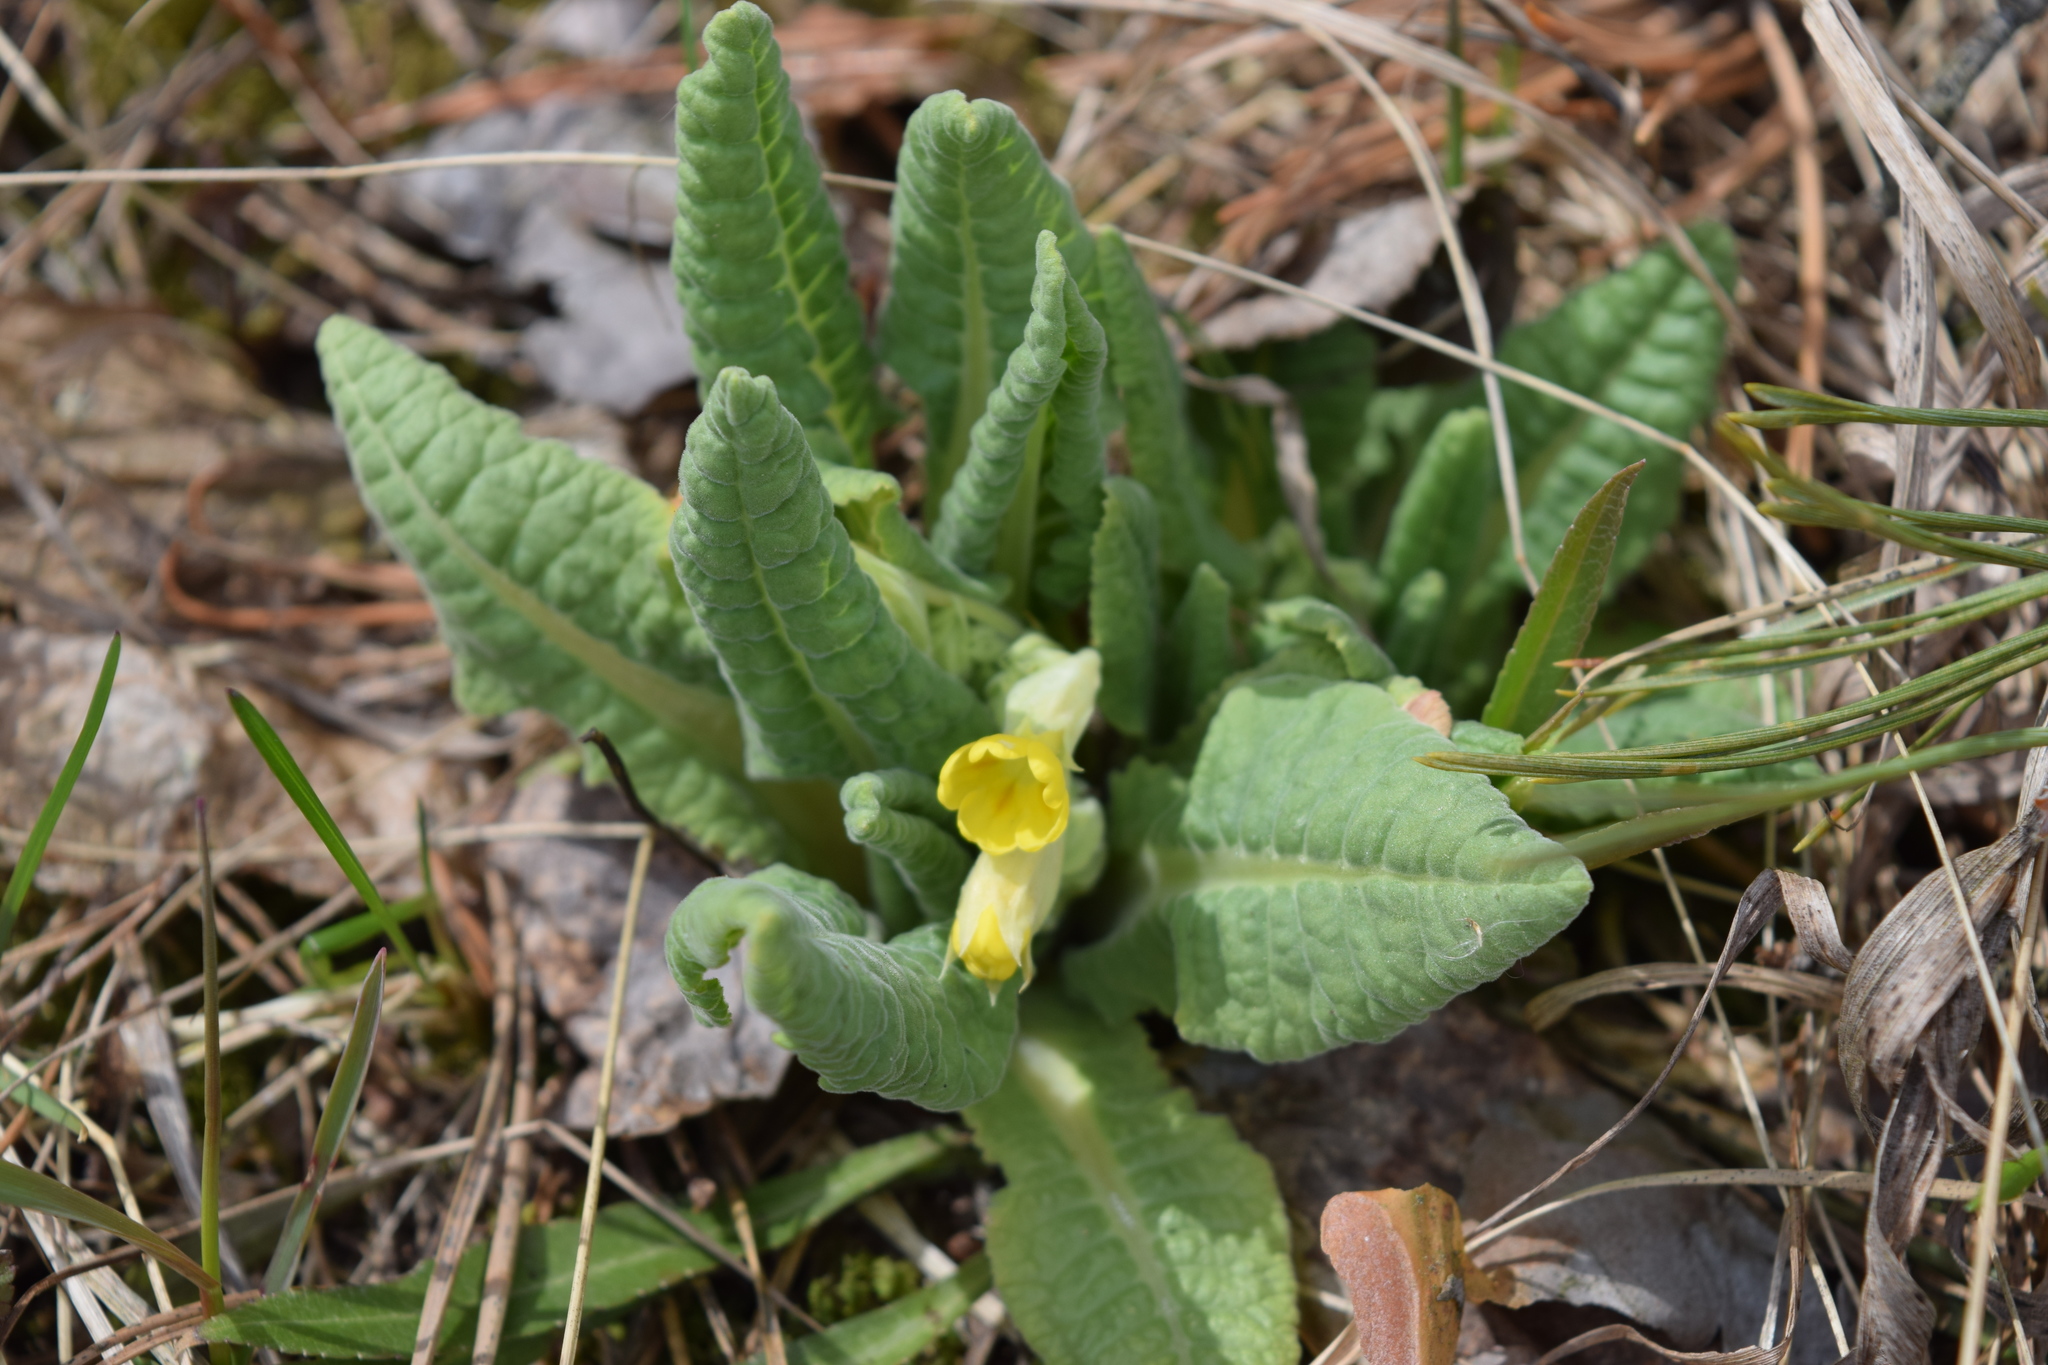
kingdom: Plantae
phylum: Tracheophyta
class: Magnoliopsida
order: Ericales
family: Primulaceae
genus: Primula
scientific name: Primula veris
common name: Cowslip
